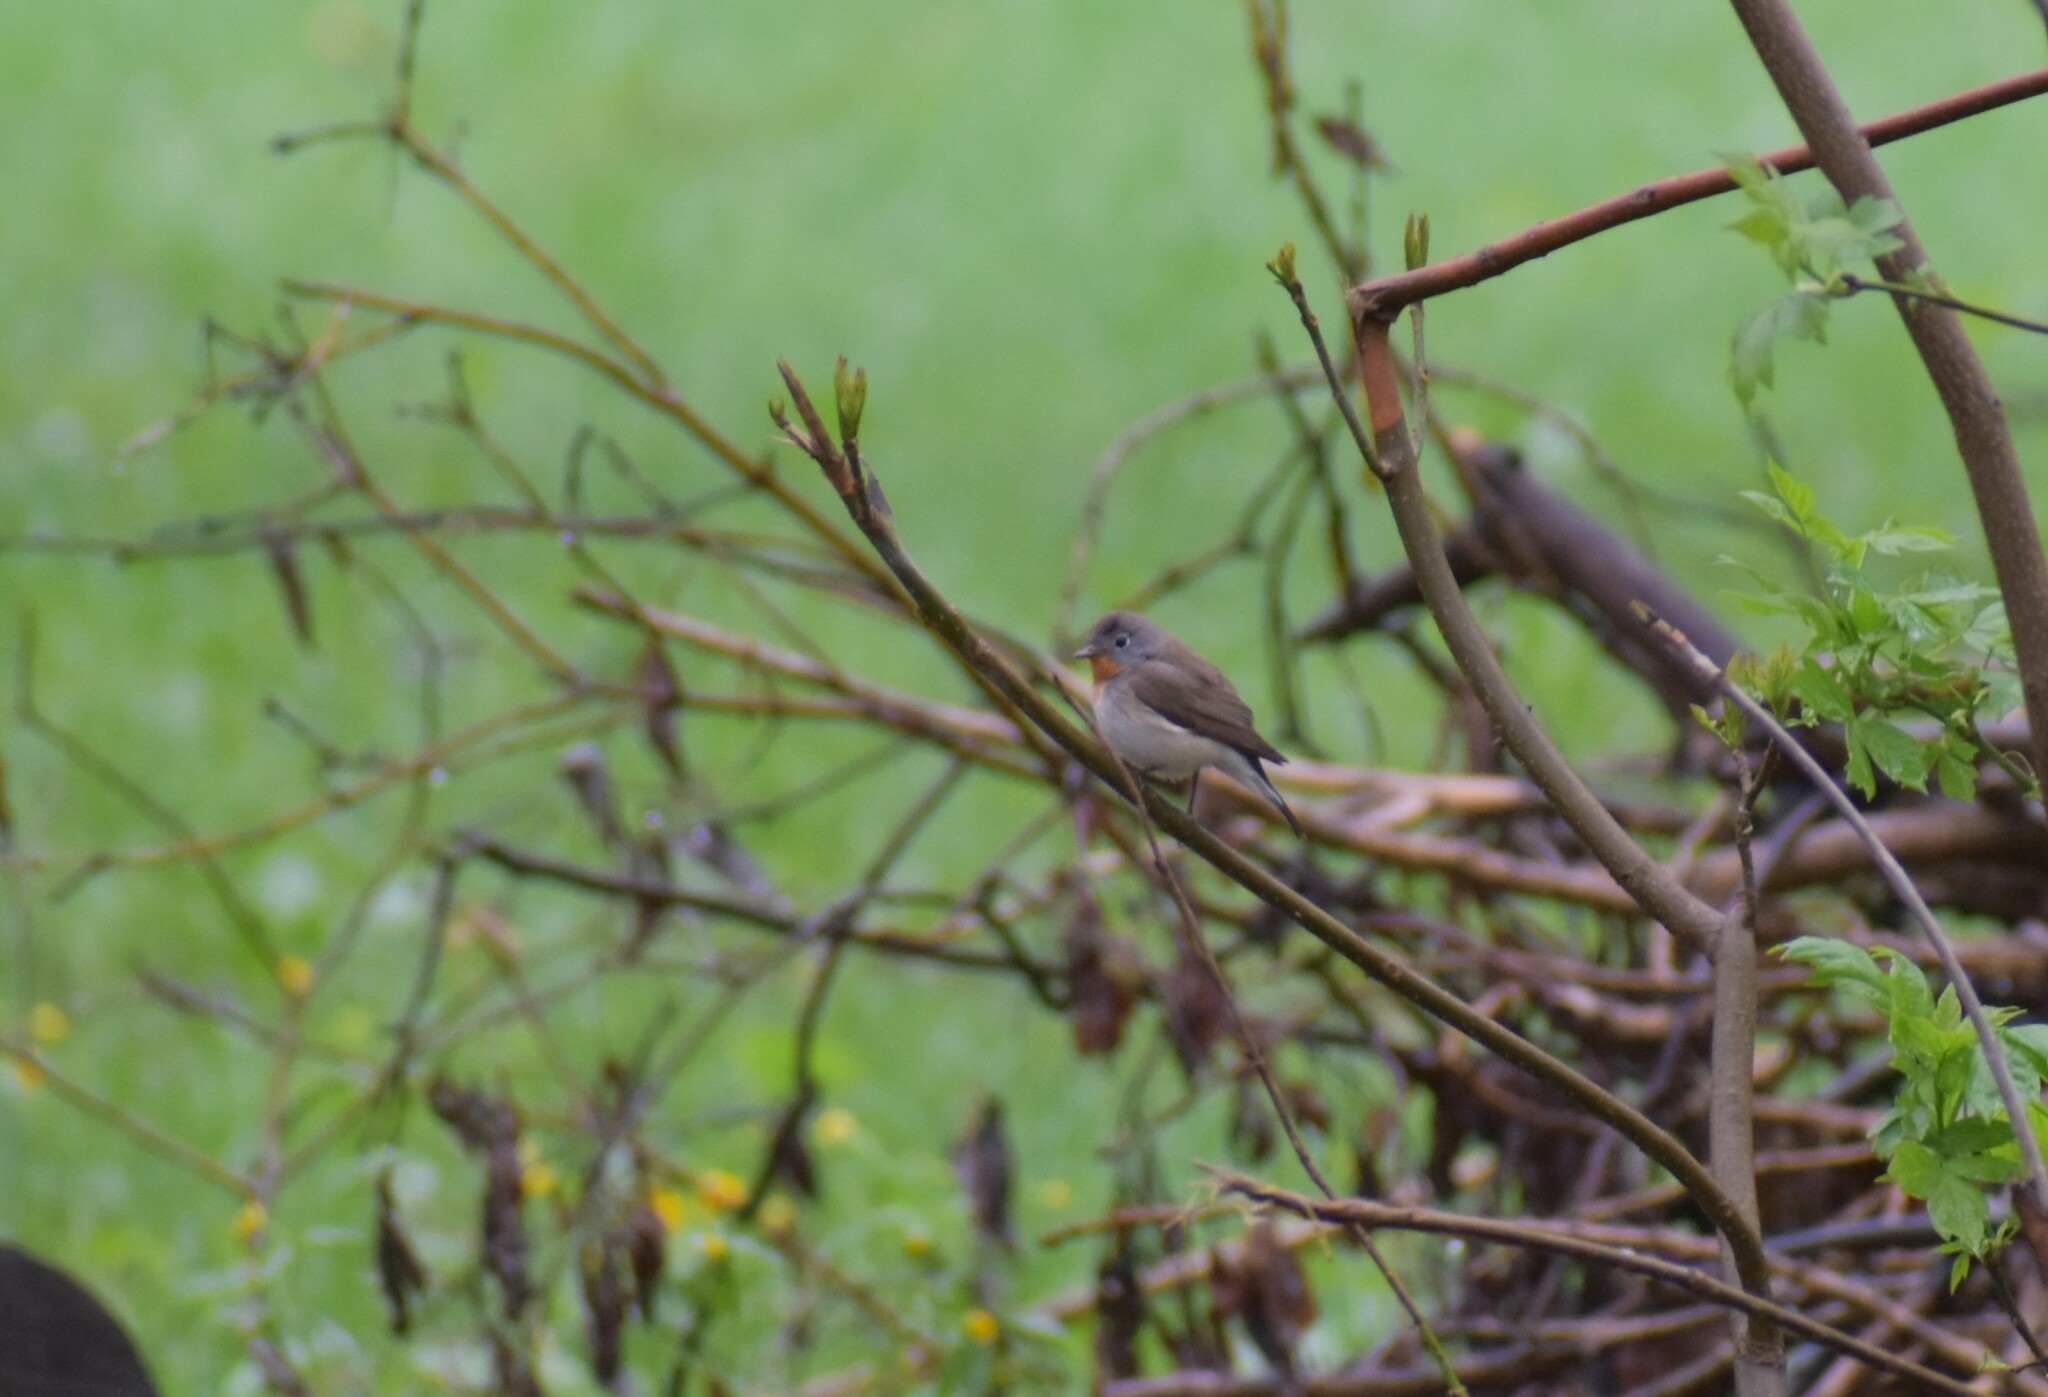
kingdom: Animalia
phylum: Chordata
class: Aves
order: Passeriformes
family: Muscicapidae
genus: Ficedula
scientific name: Ficedula parva
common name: Red-breasted flycatcher
